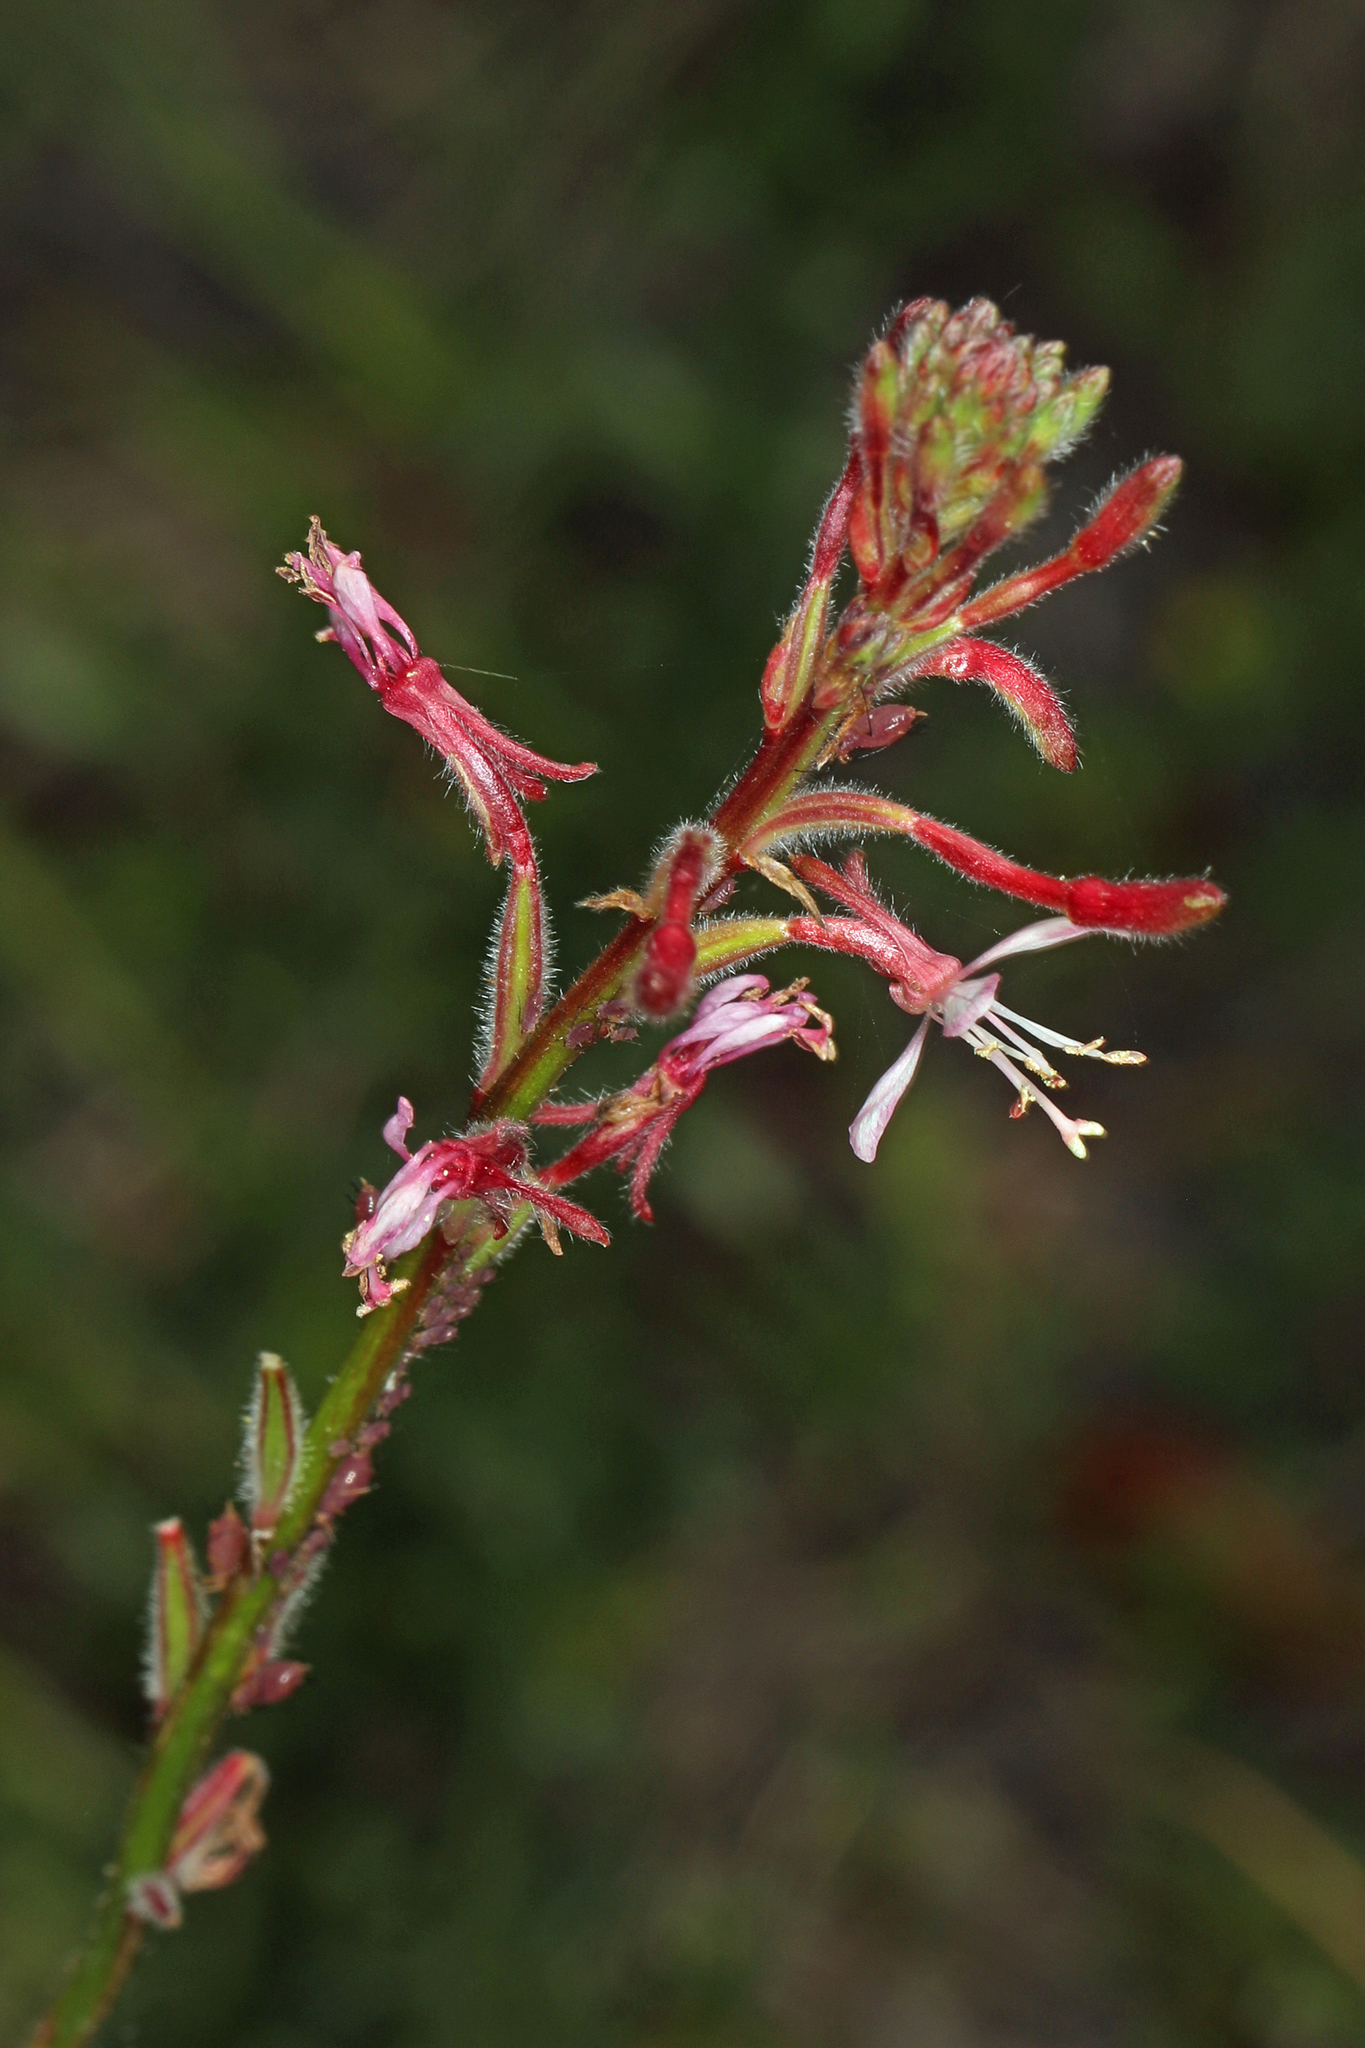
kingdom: Plantae
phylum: Tracheophyta
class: Magnoliopsida
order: Myrtales
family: Onagraceae
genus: Oenothera
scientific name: Oenothera simulans
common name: Southern beeblossom
